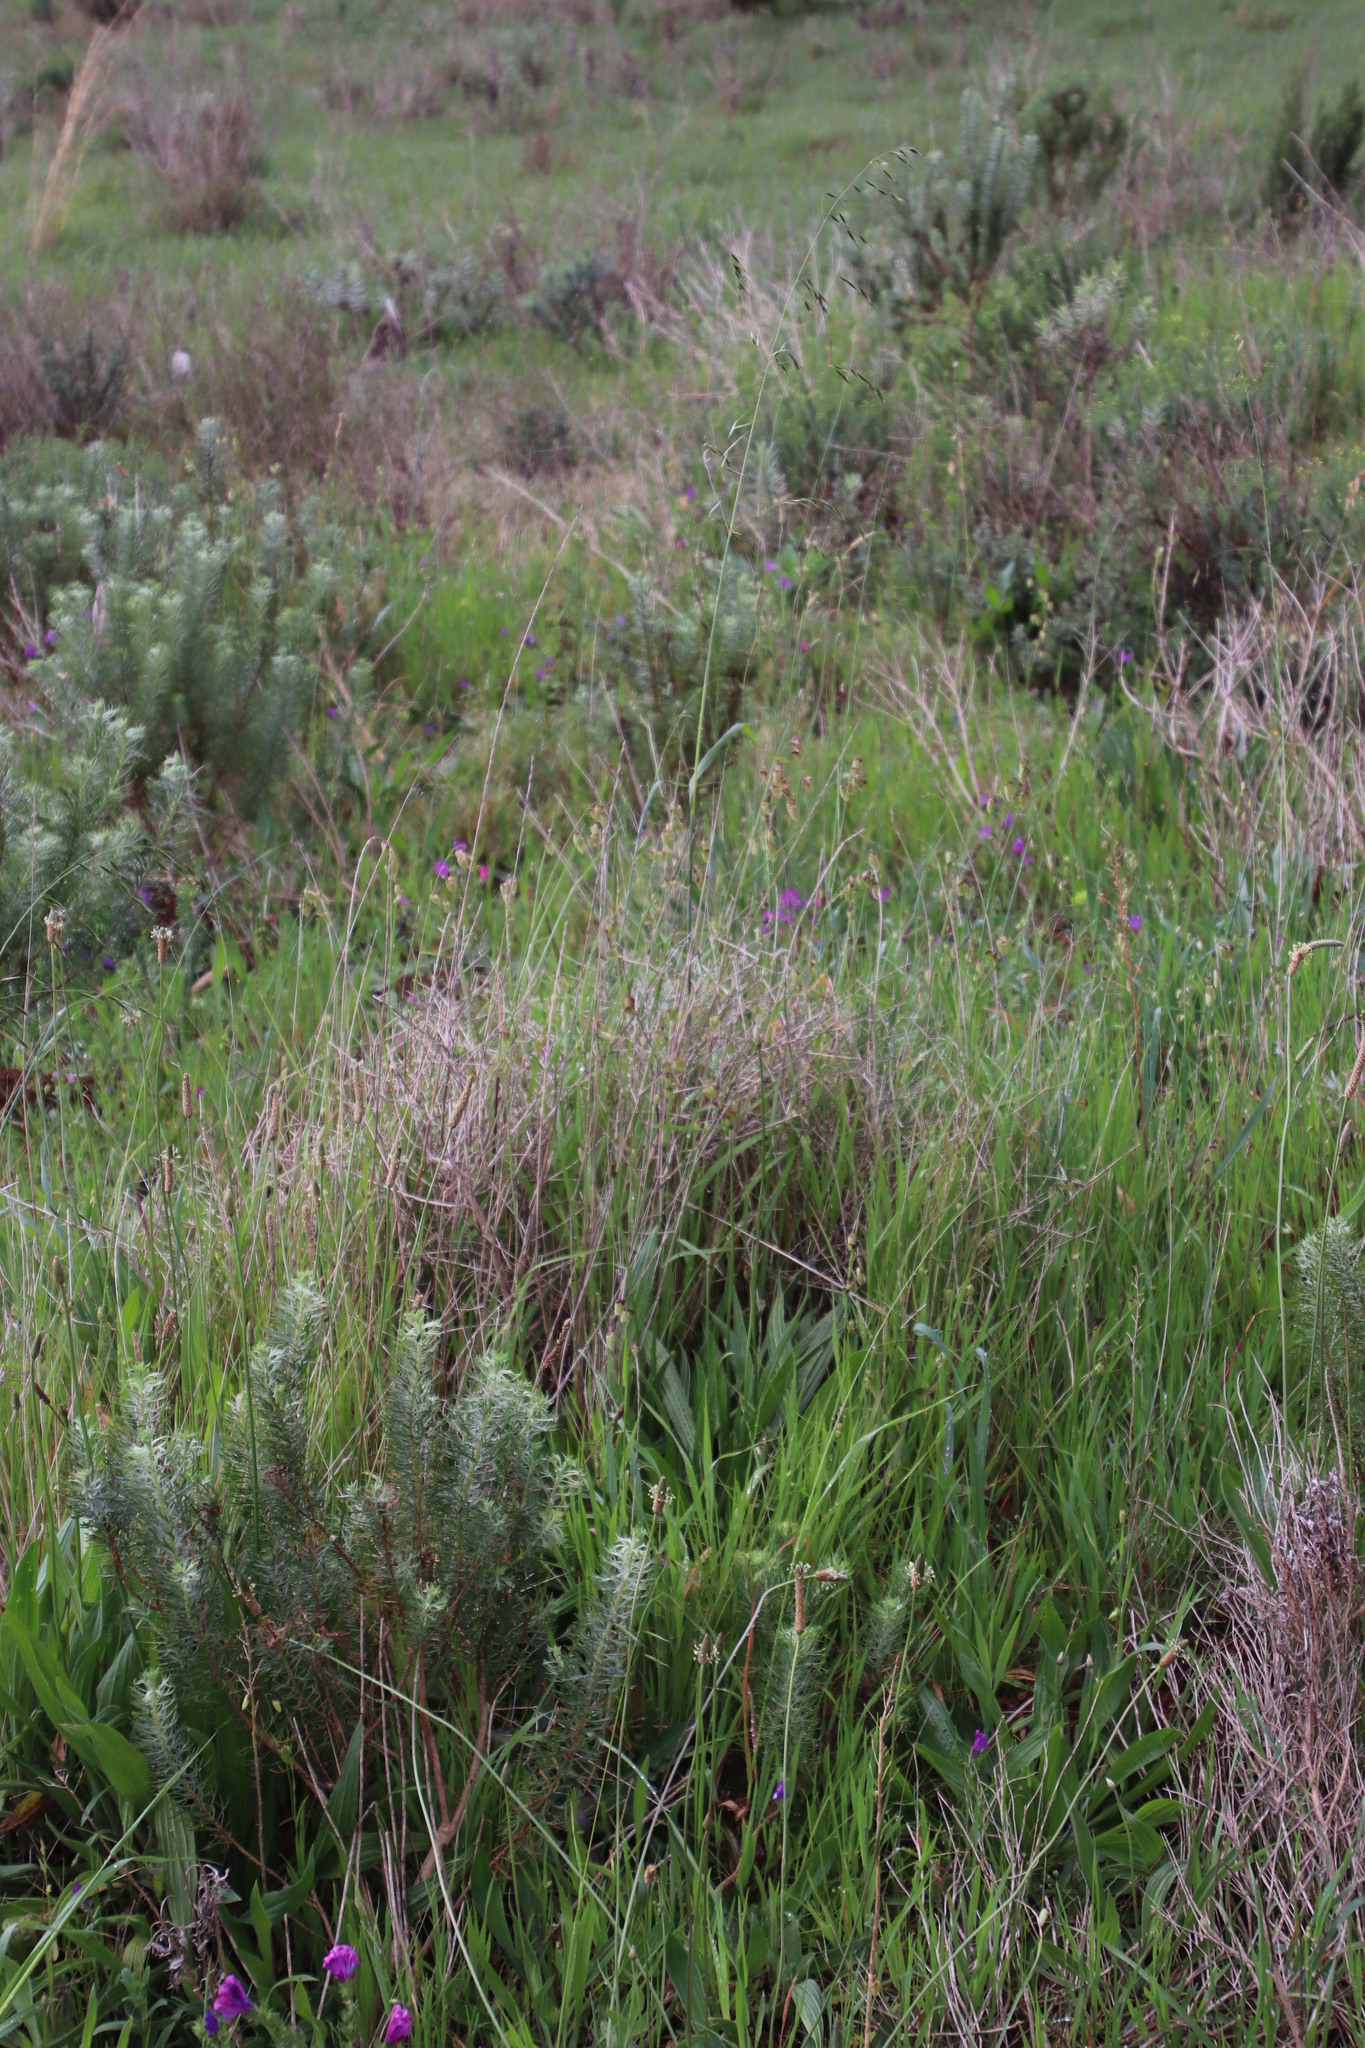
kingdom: Plantae
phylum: Tracheophyta
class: Liliopsida
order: Poales
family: Poaceae
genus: Briza
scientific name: Briza maxima
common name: Big quakinggrass
